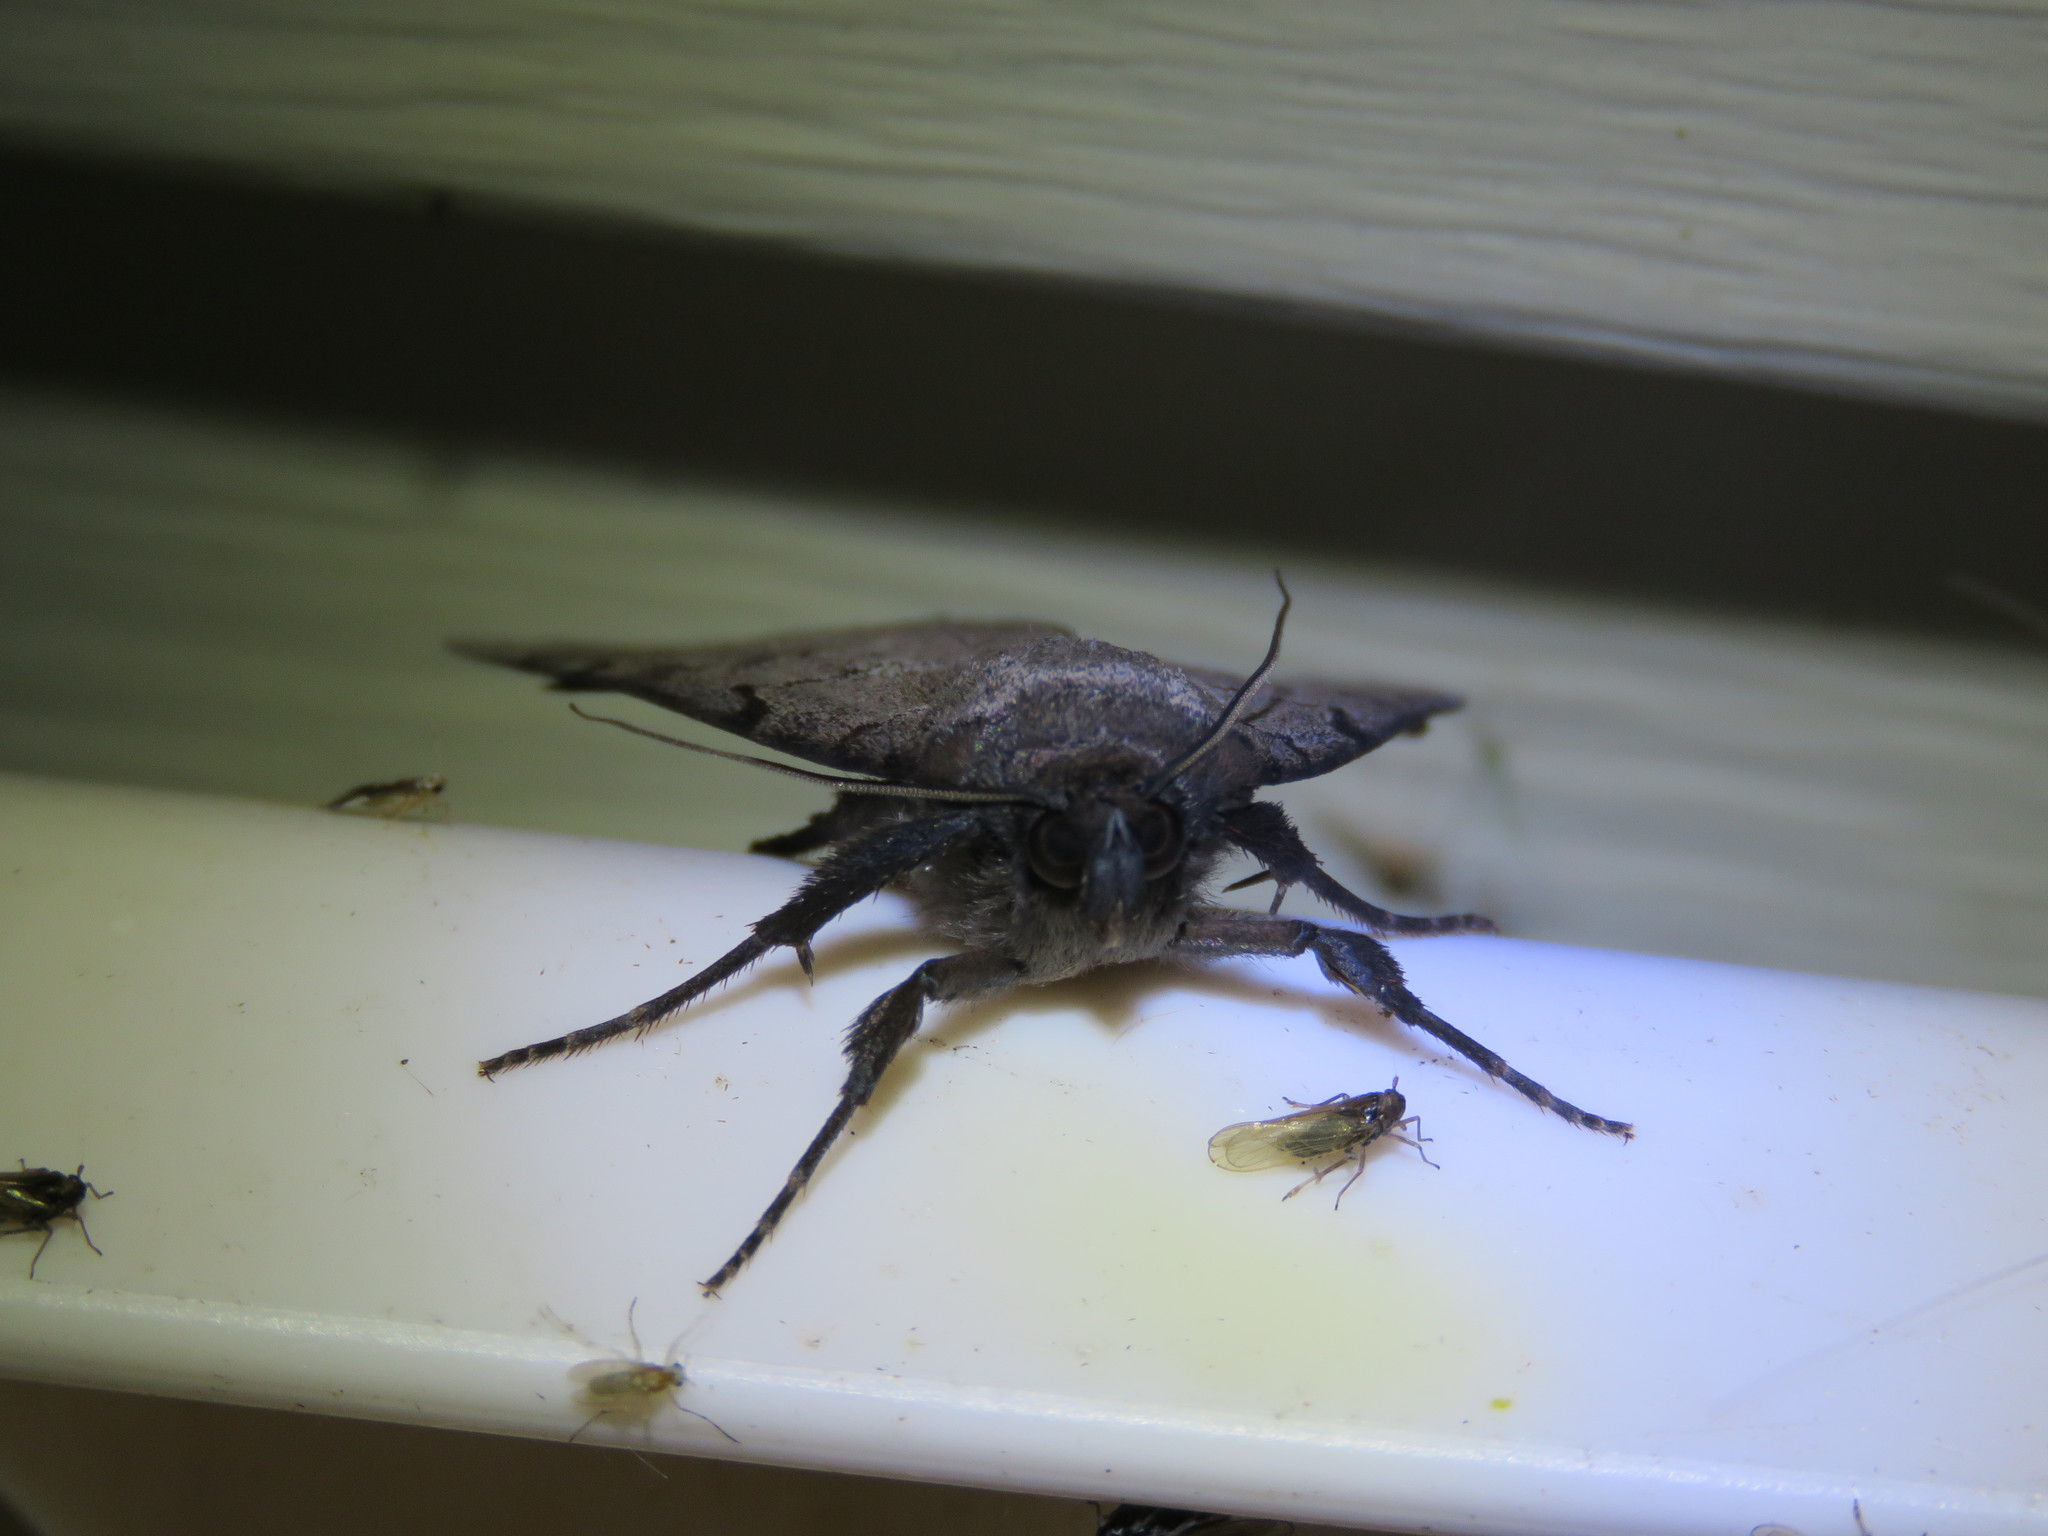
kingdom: Animalia
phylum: Arthropoda
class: Insecta
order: Lepidoptera
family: Erebidae
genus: Catocala
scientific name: Catocala serena
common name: Serene underwing
